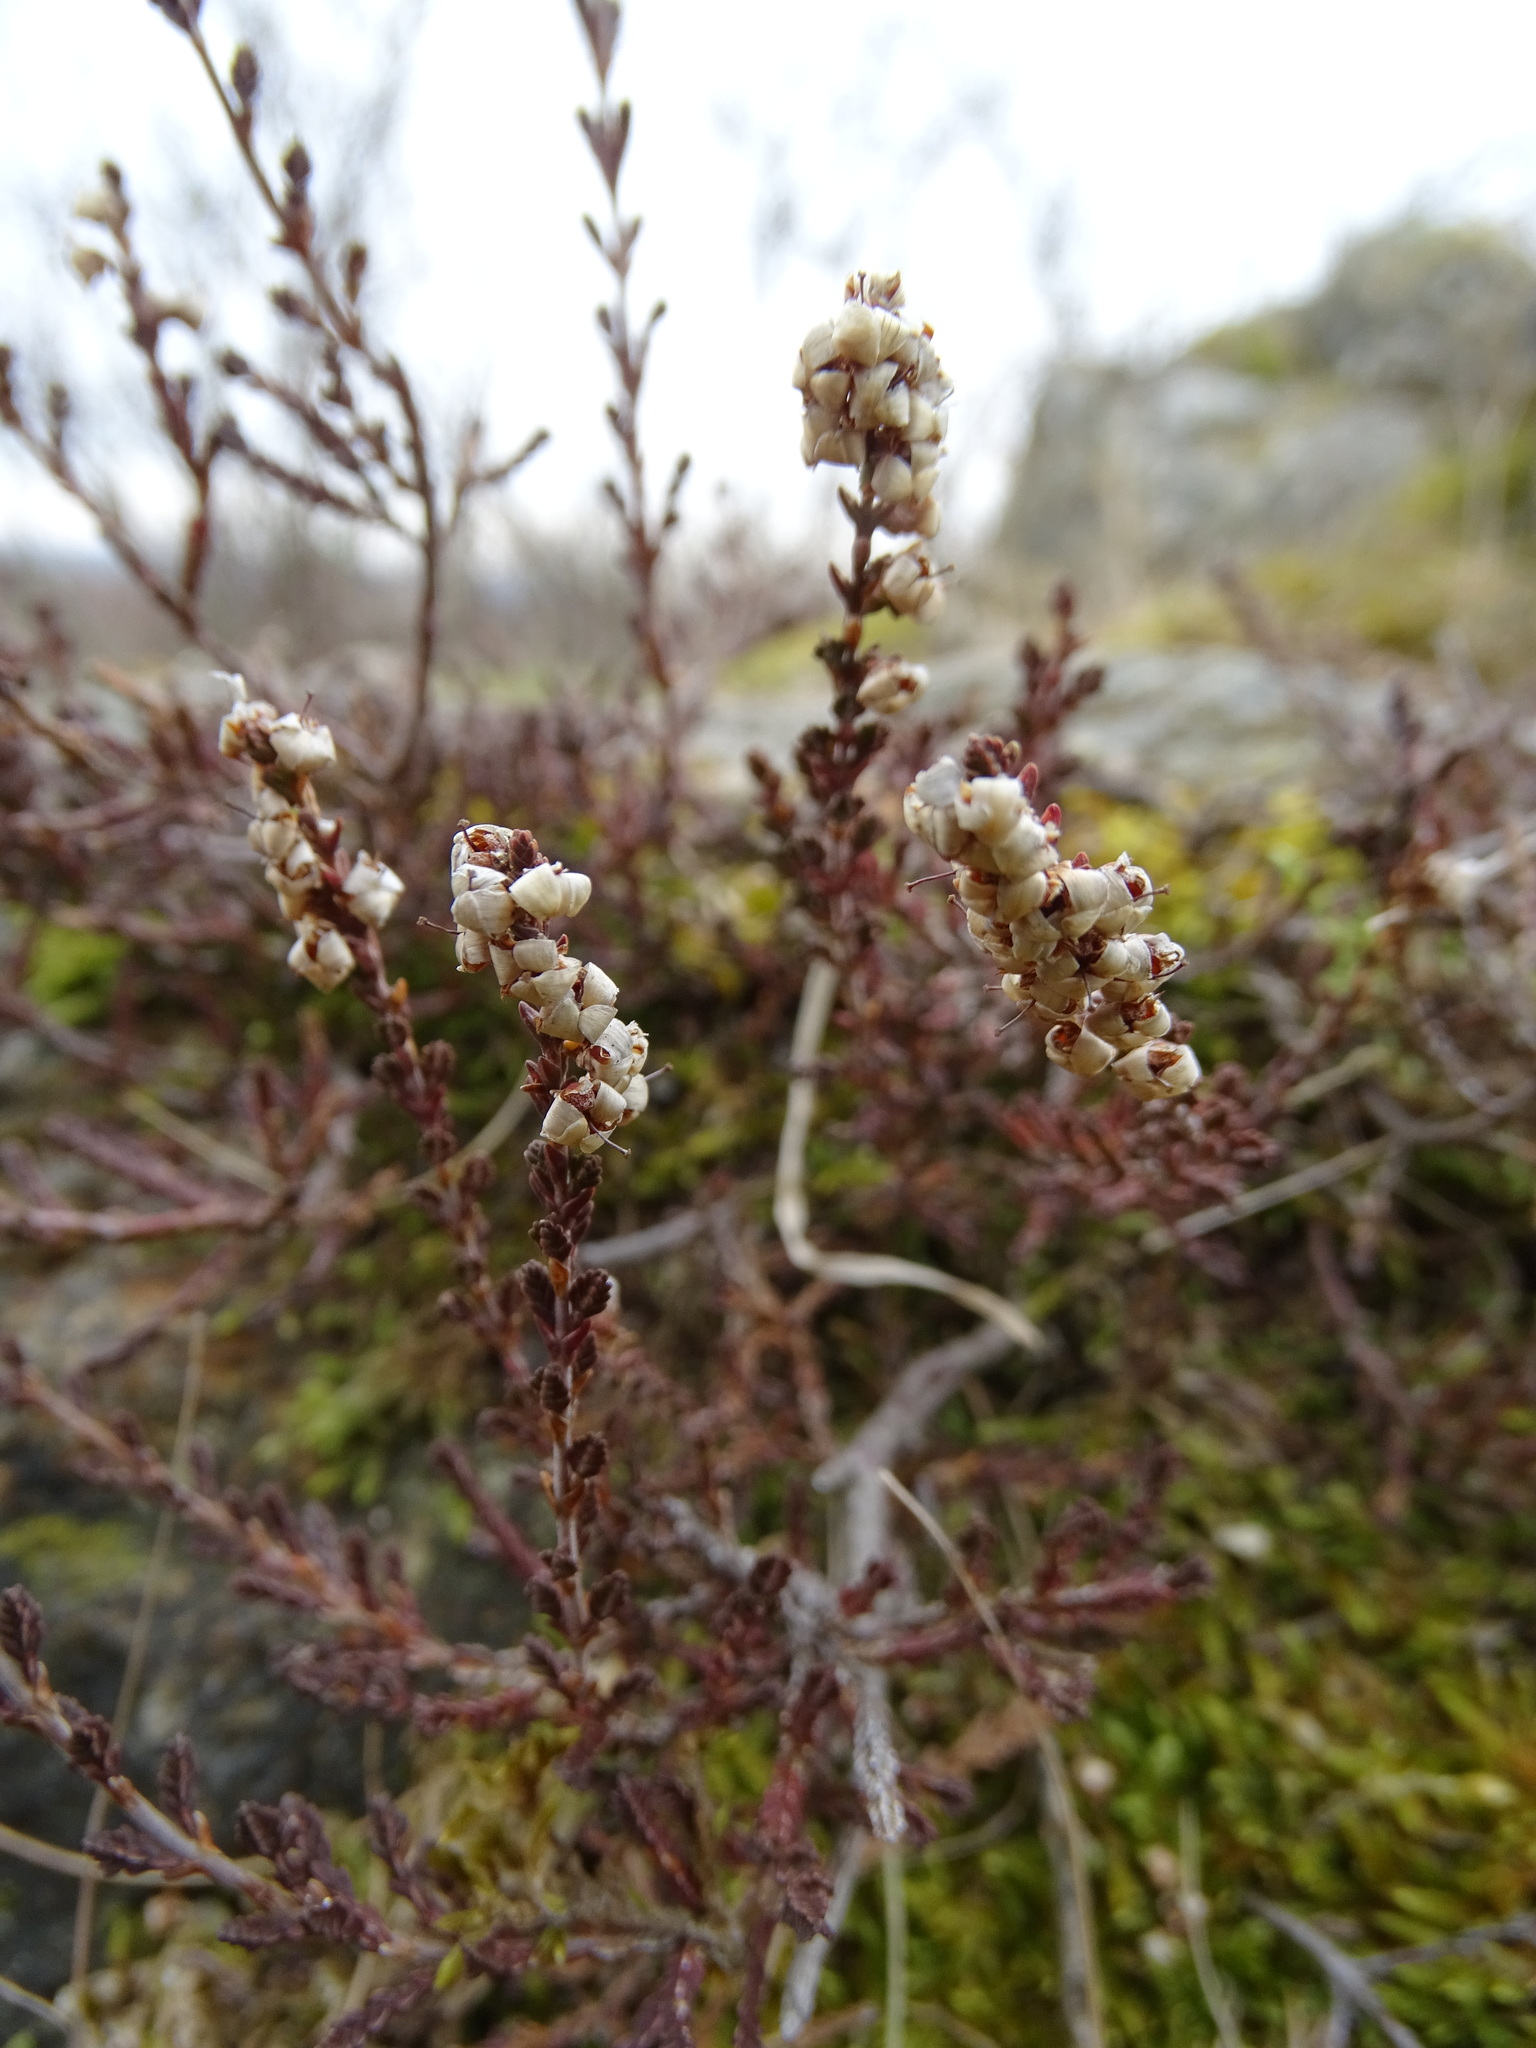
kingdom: Plantae
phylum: Tracheophyta
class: Magnoliopsida
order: Ericales
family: Ericaceae
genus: Calluna
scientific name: Calluna vulgaris
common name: Heather
